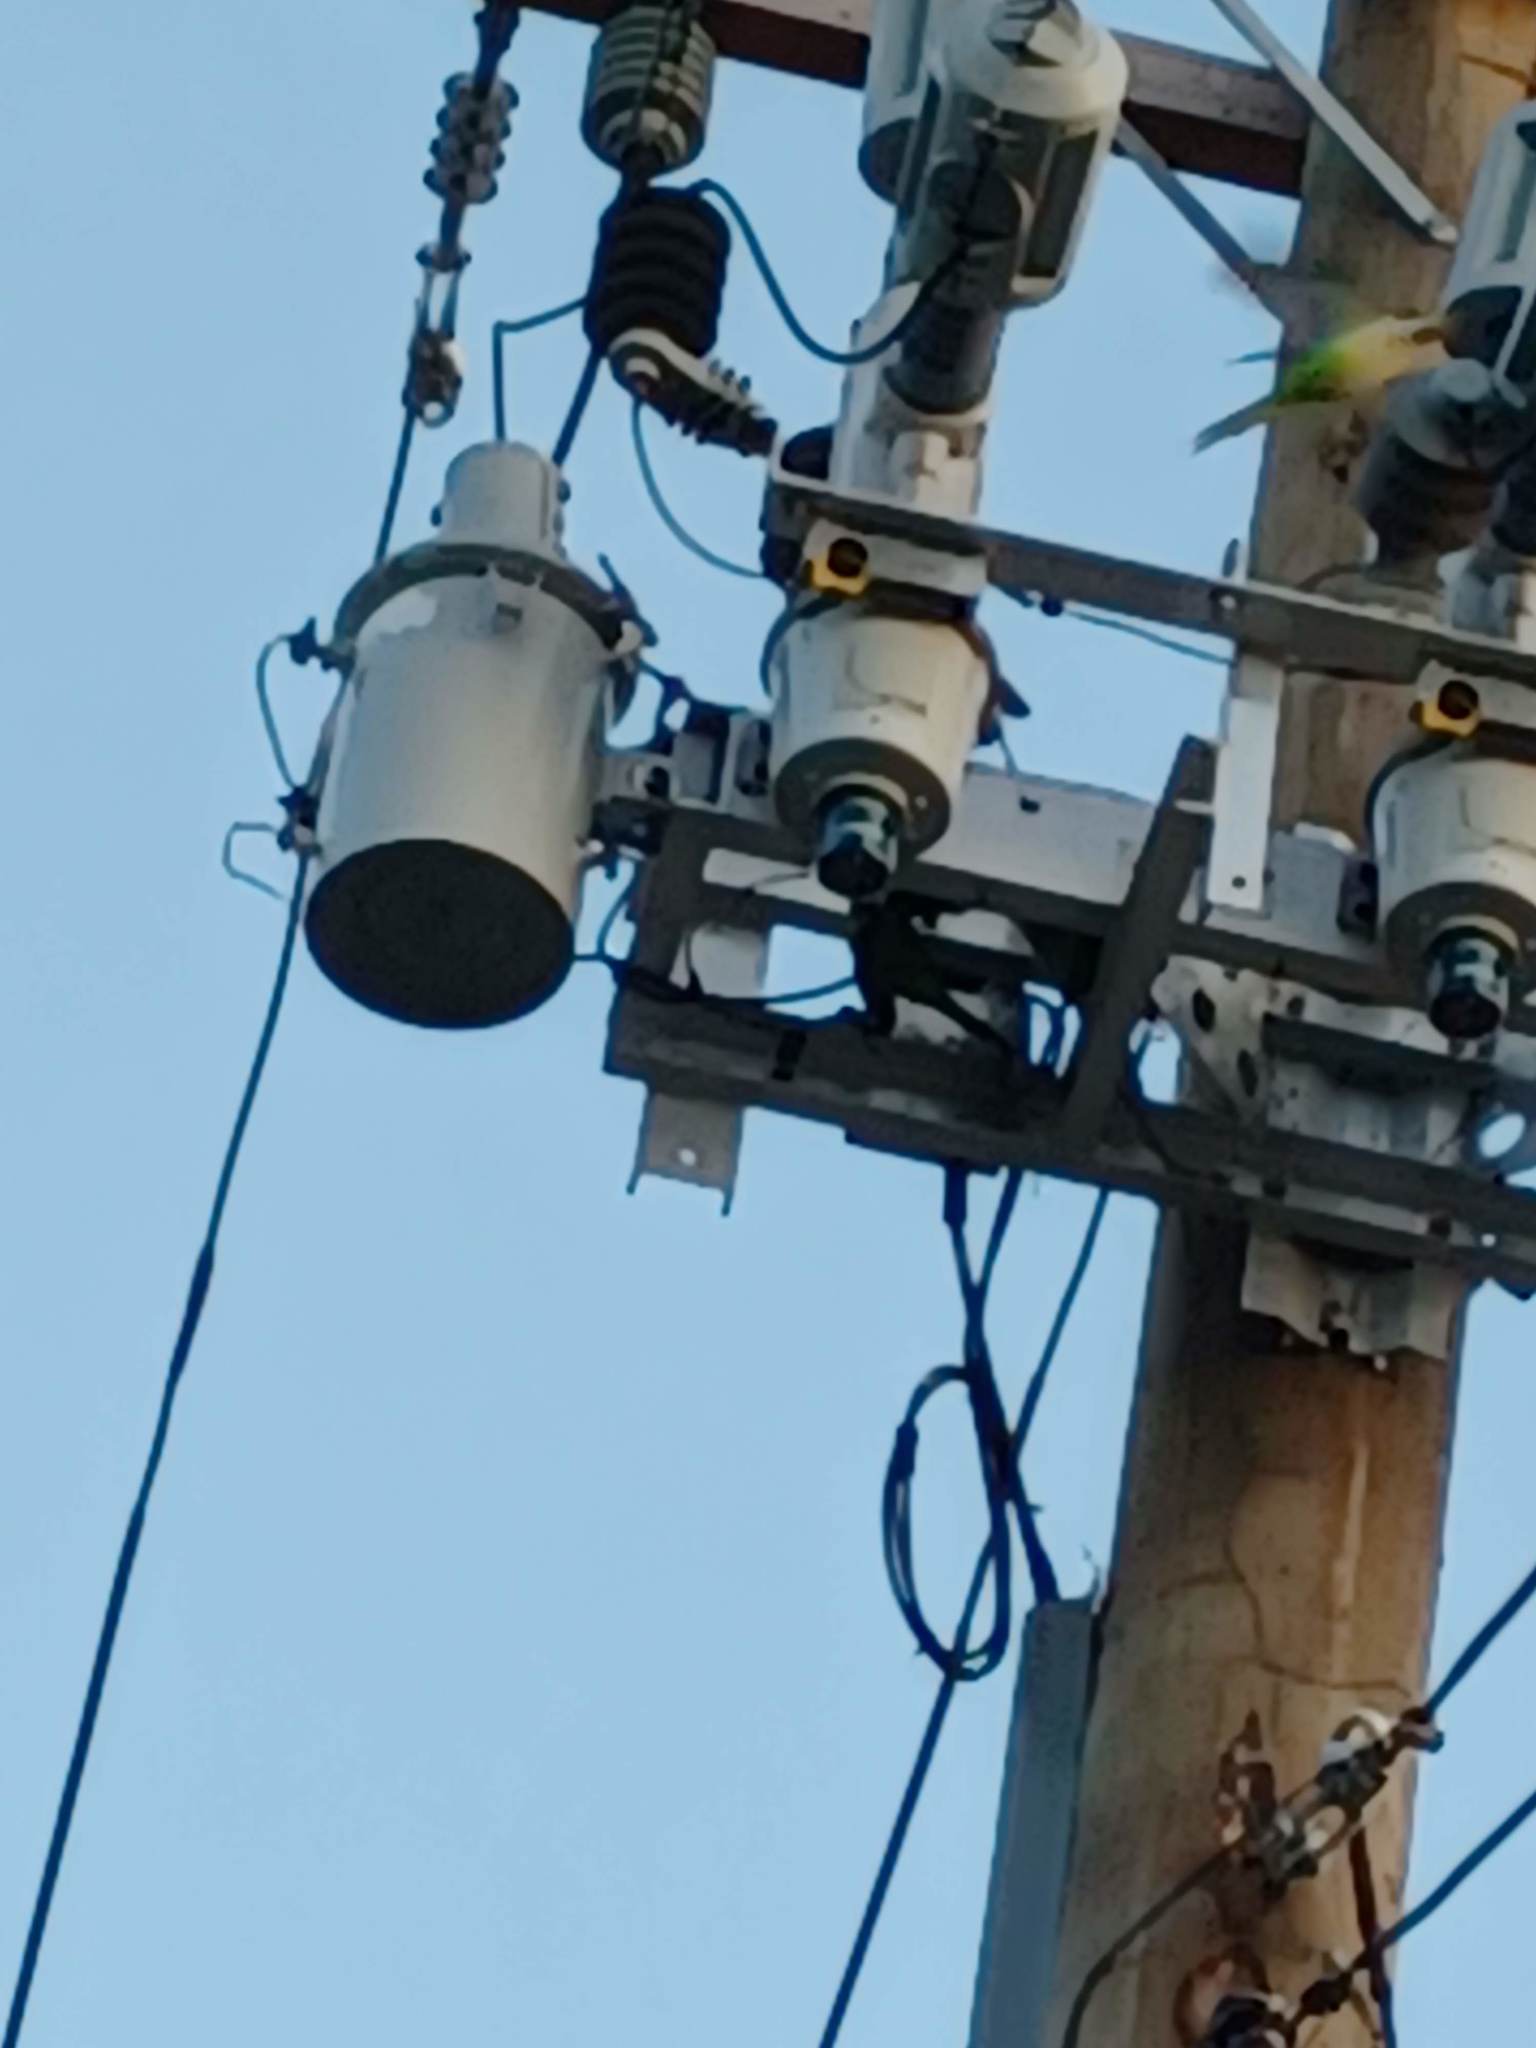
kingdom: Animalia
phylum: Chordata
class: Aves
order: Psittaciformes
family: Psittacidae
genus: Myiopsitta
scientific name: Myiopsitta monachus
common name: Monk parakeet
